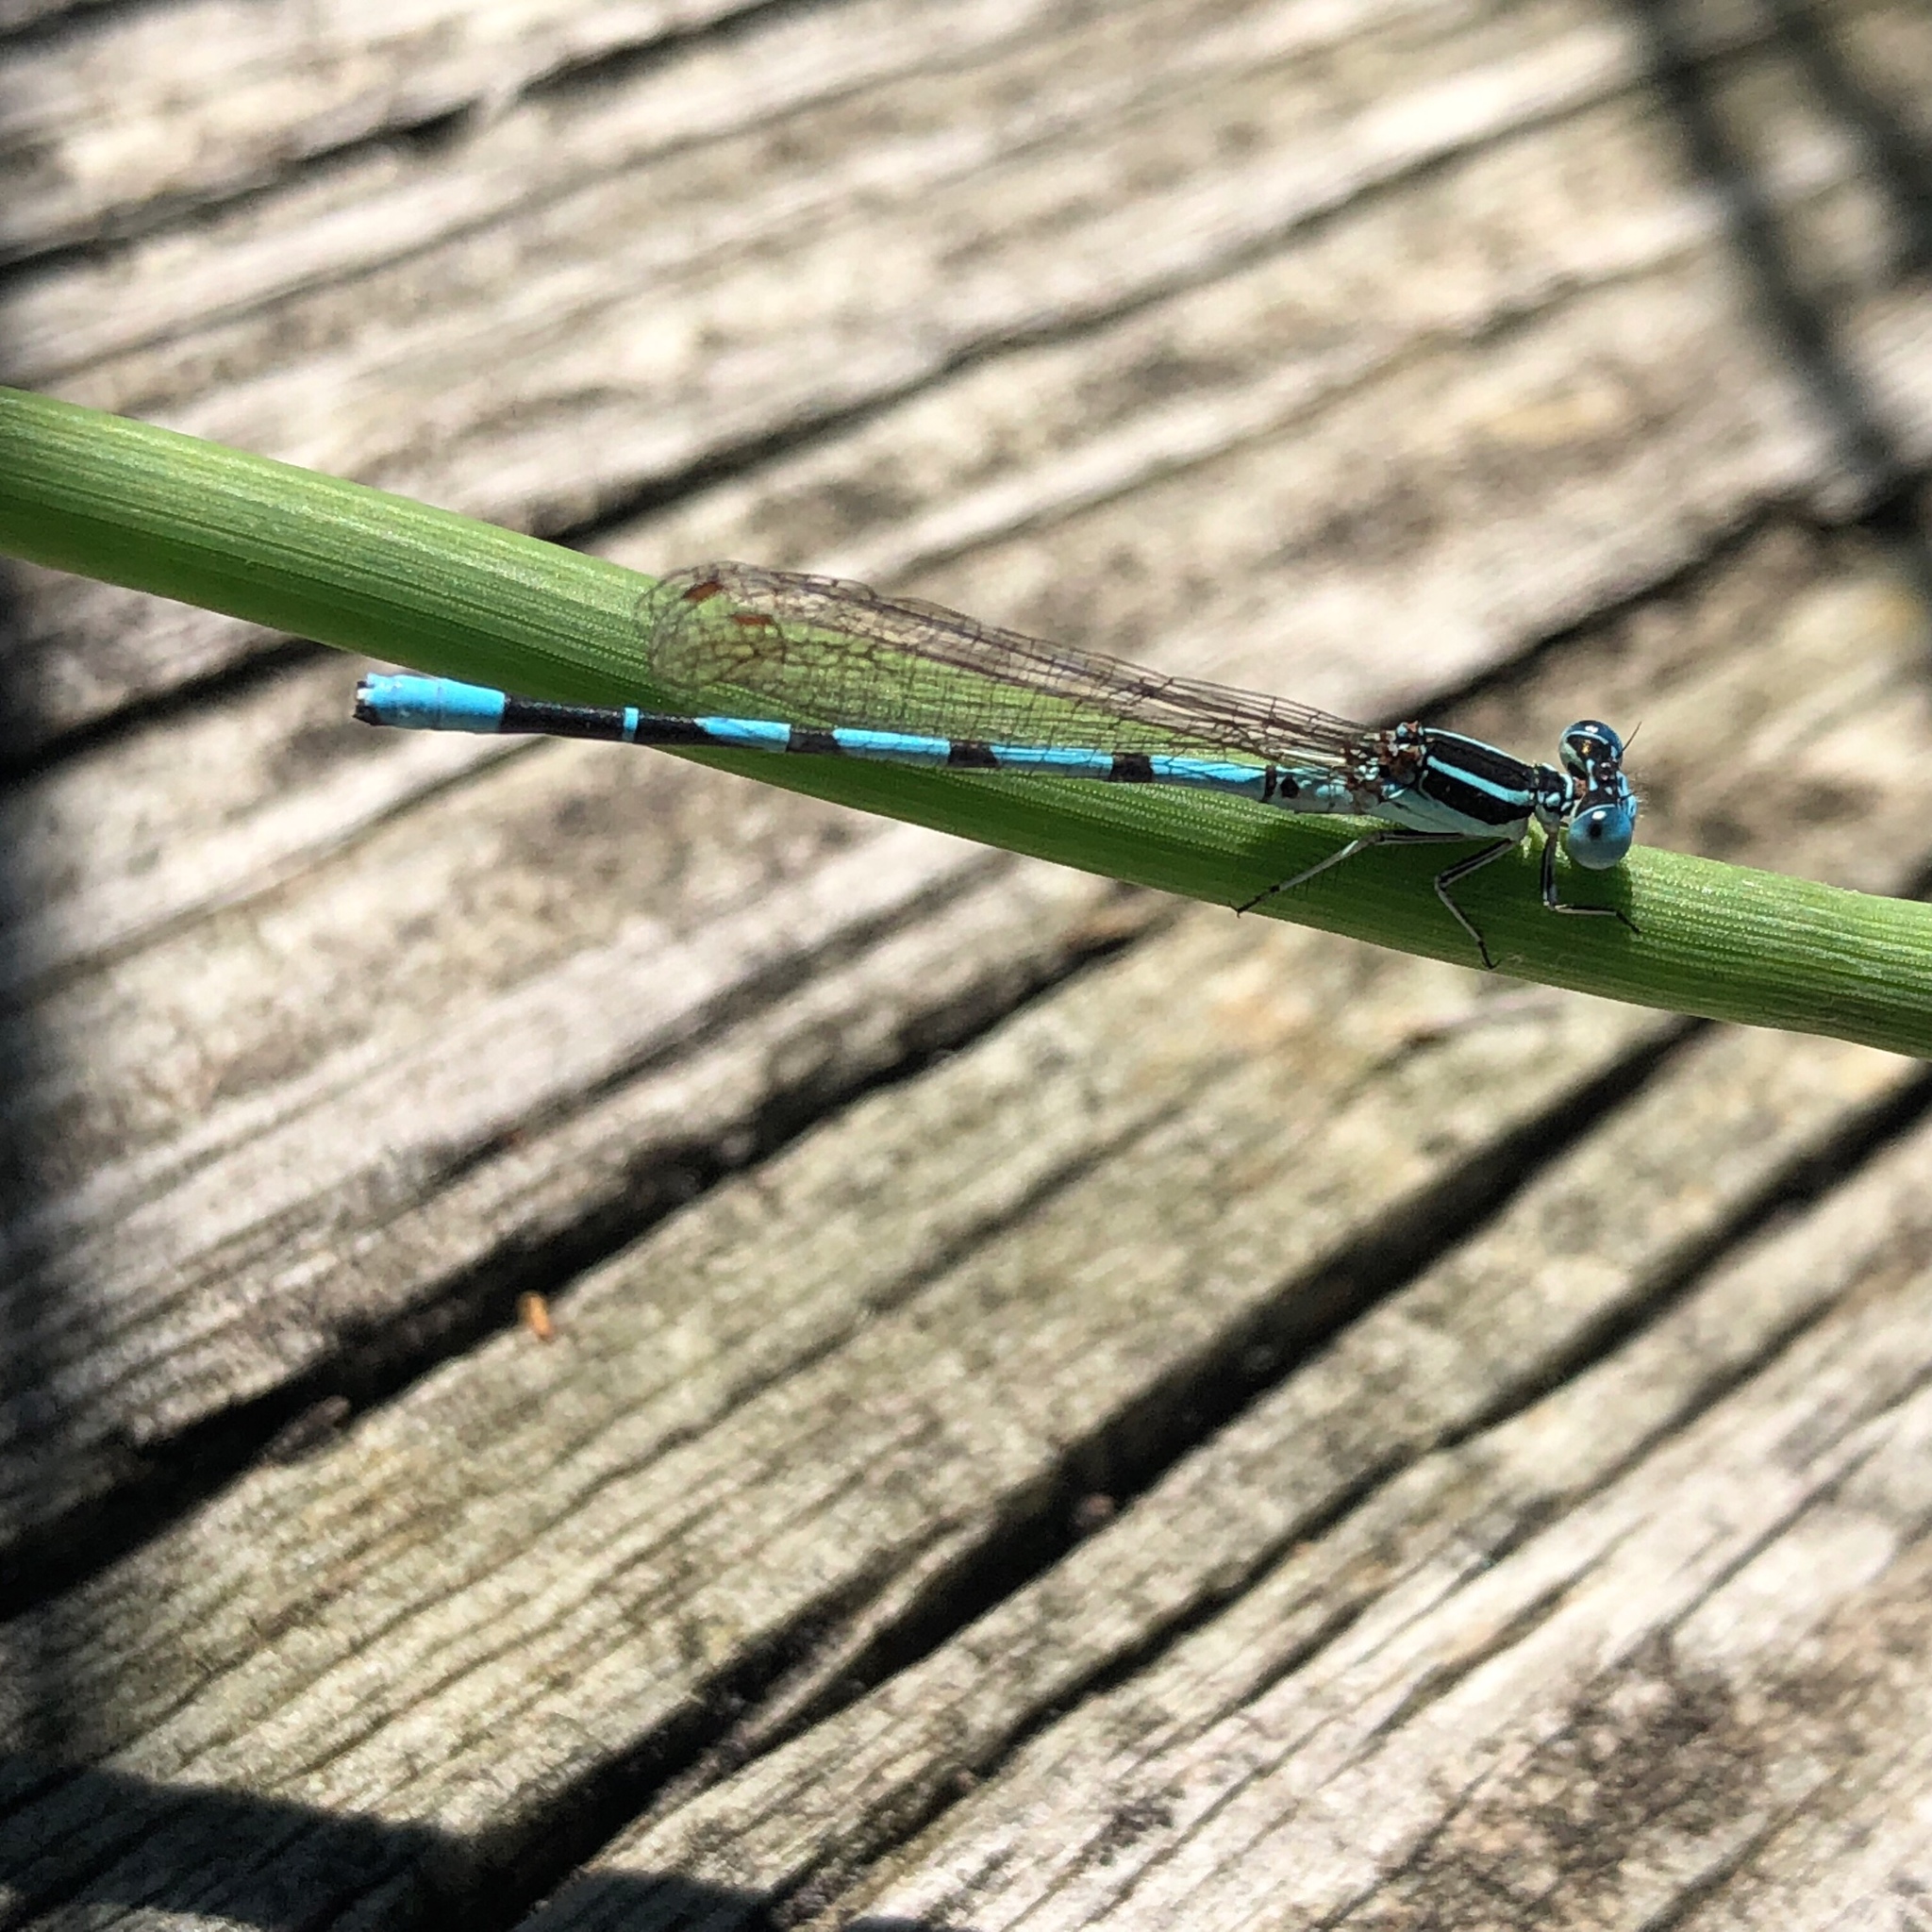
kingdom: Animalia
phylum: Arthropoda
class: Insecta
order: Odonata
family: Coenagrionidae
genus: Argia
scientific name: Argia bipunctulata
